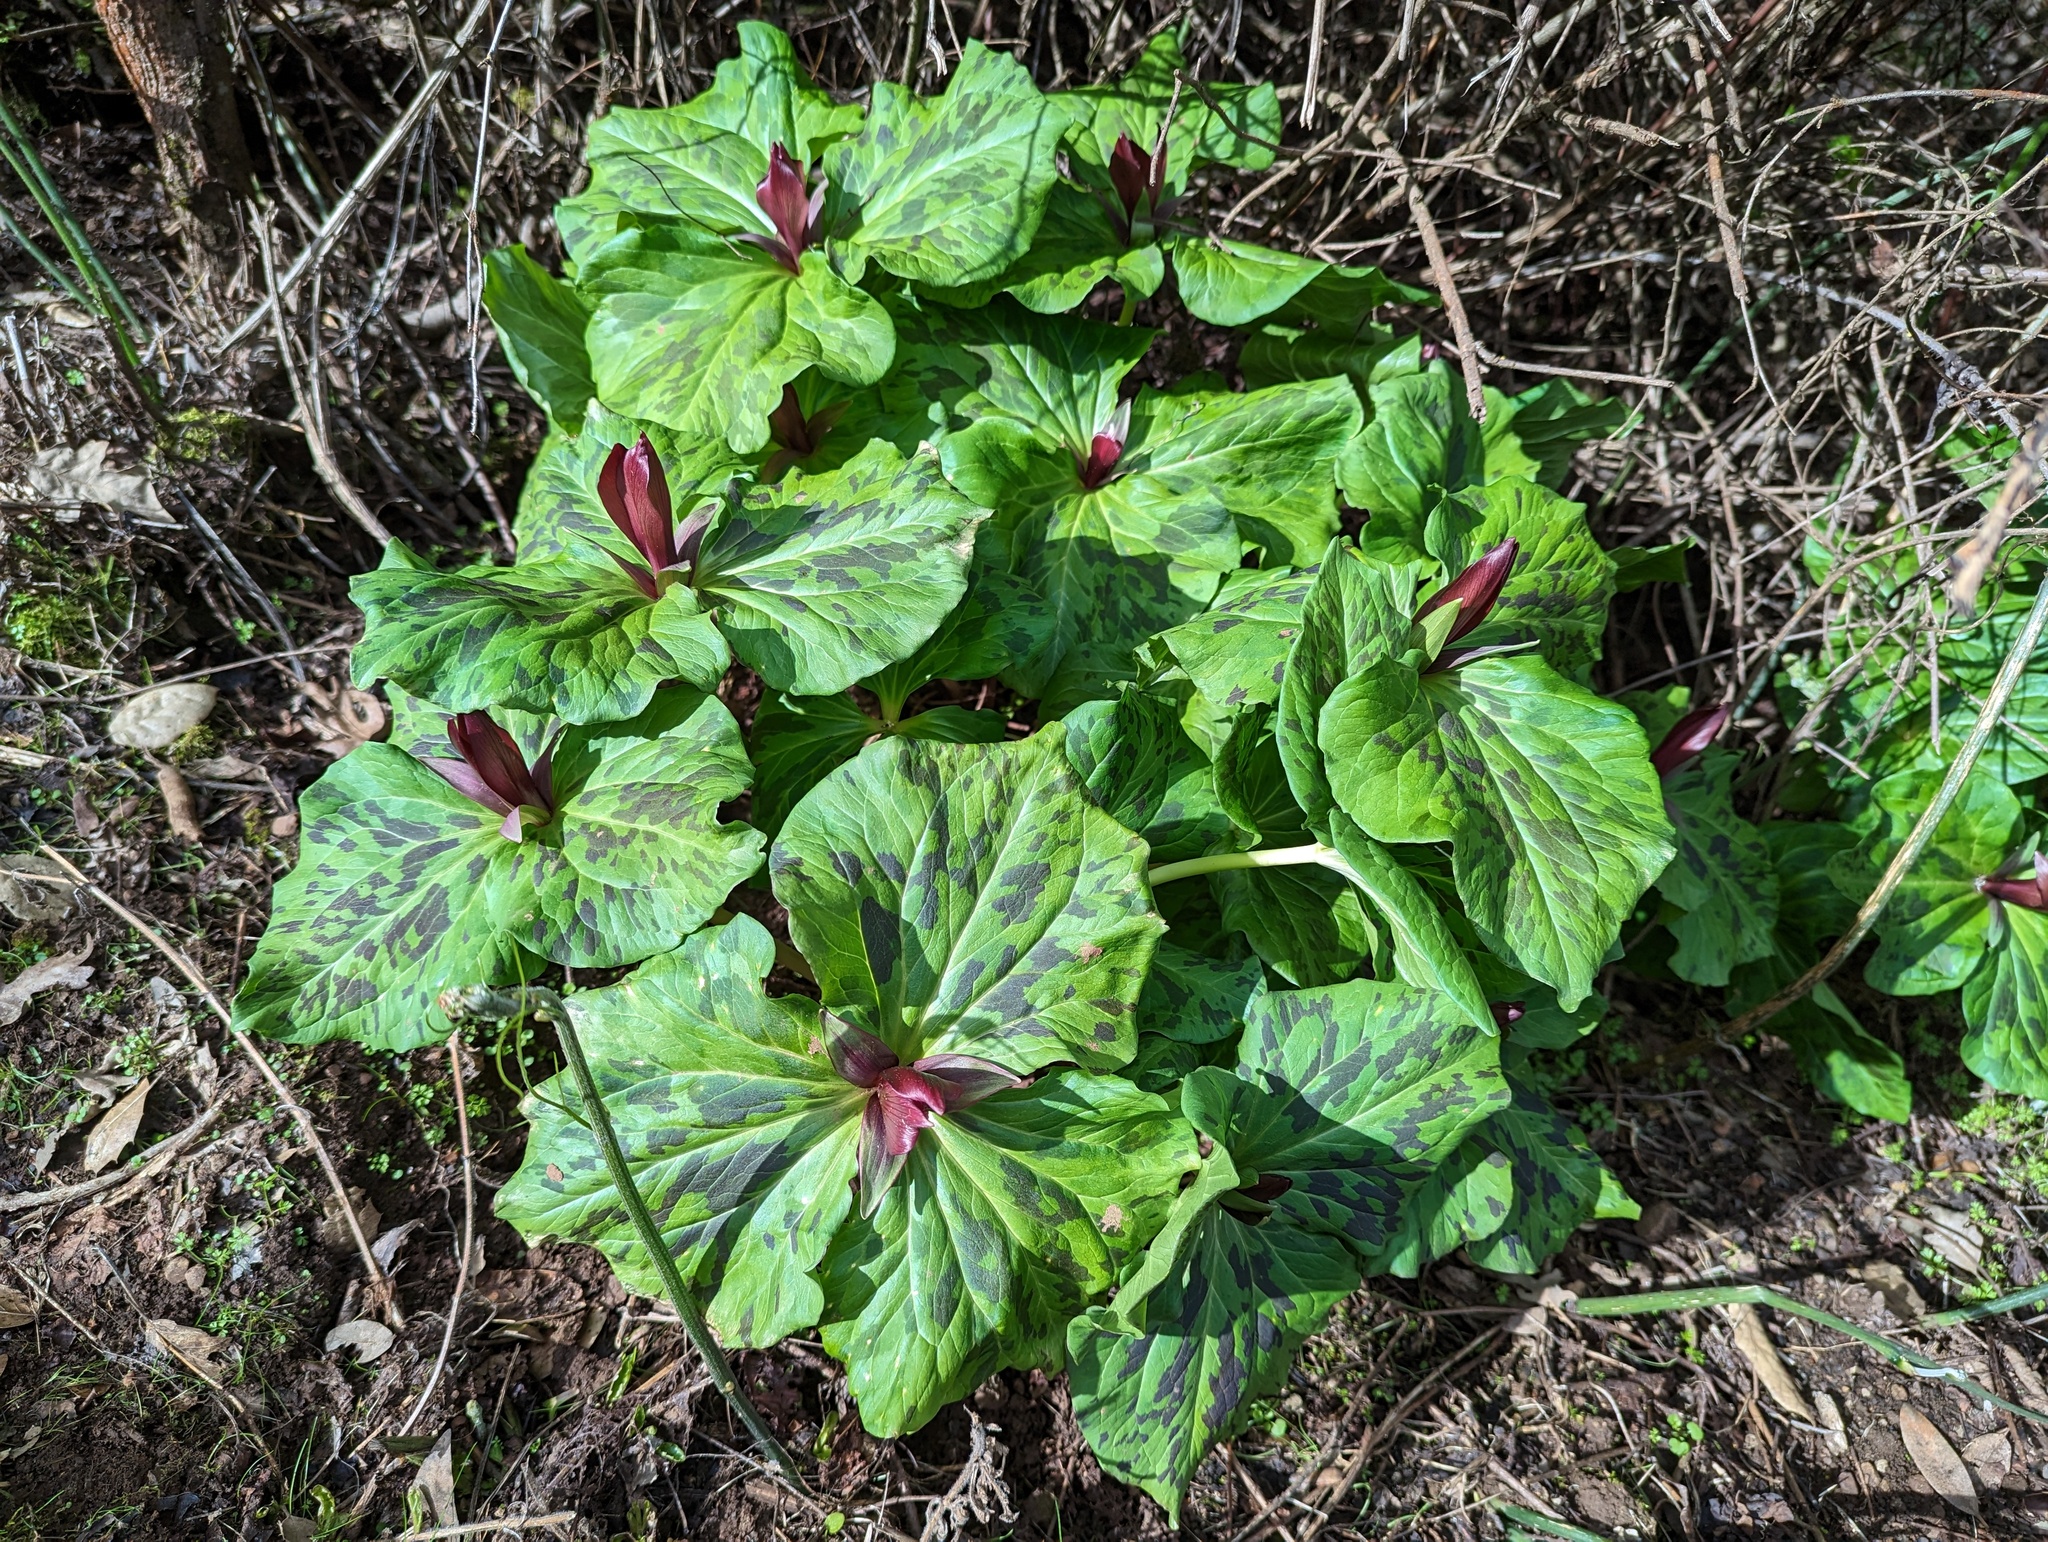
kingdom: Plantae
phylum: Tracheophyta
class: Liliopsida
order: Liliales
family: Melanthiaceae
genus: Trillium
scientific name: Trillium chloropetalum
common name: Giant trillium
